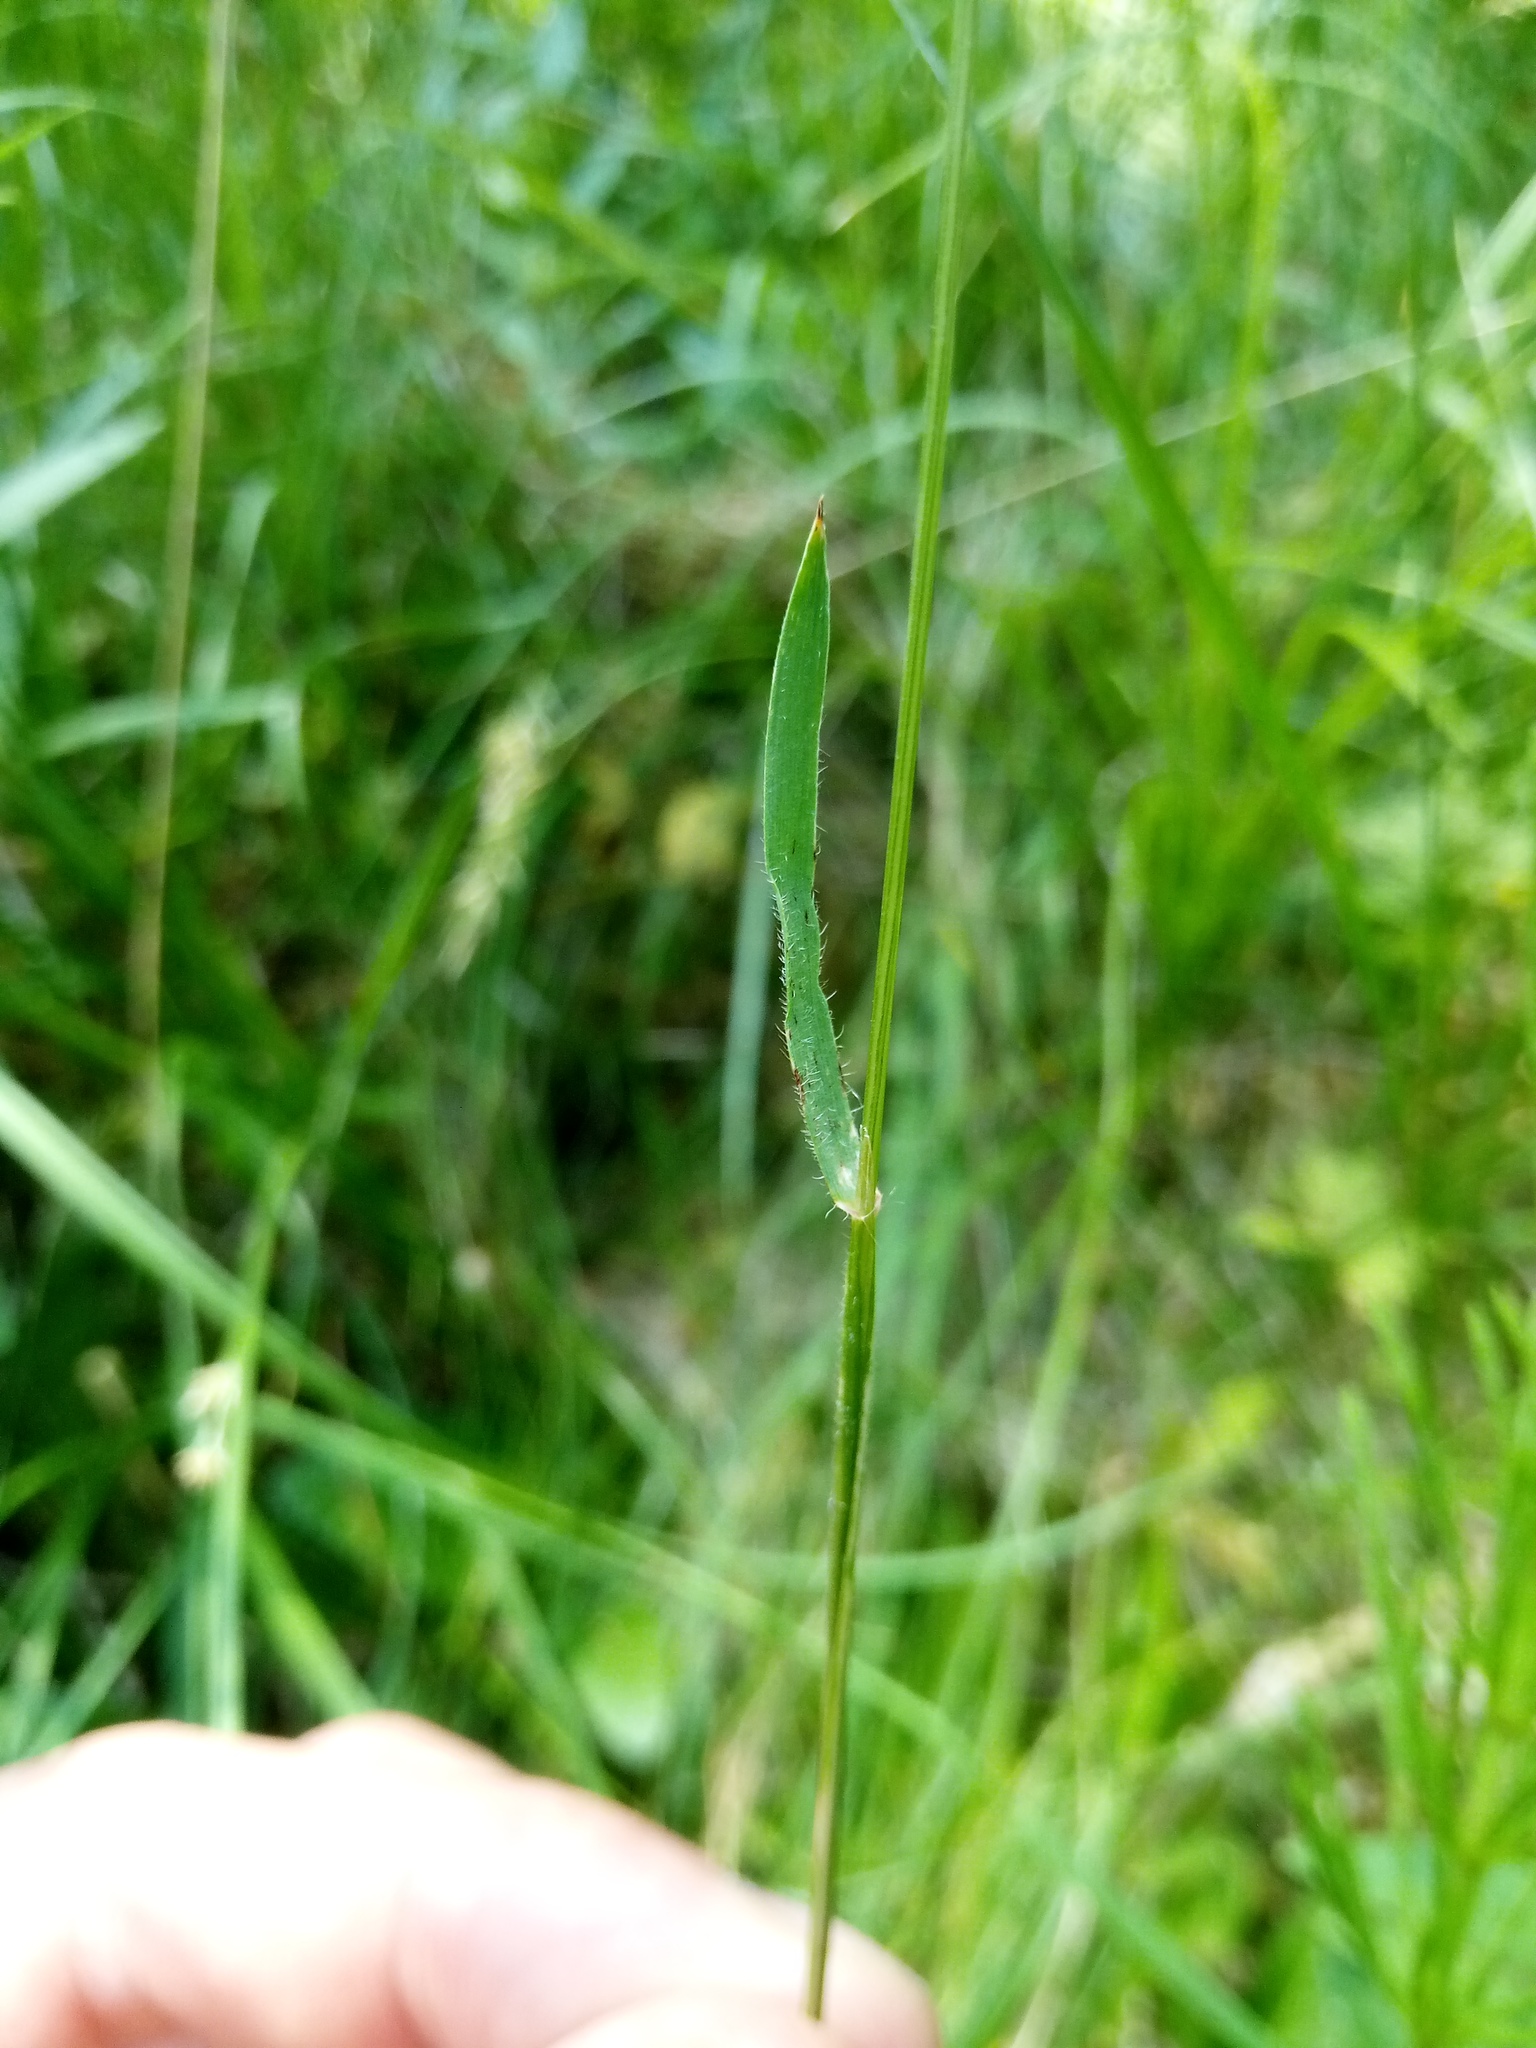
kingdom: Plantae
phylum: Tracheophyta
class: Liliopsida
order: Poales
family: Poaceae
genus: Anthoxanthum
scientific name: Anthoxanthum odoratum
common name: Sweet vernalgrass
